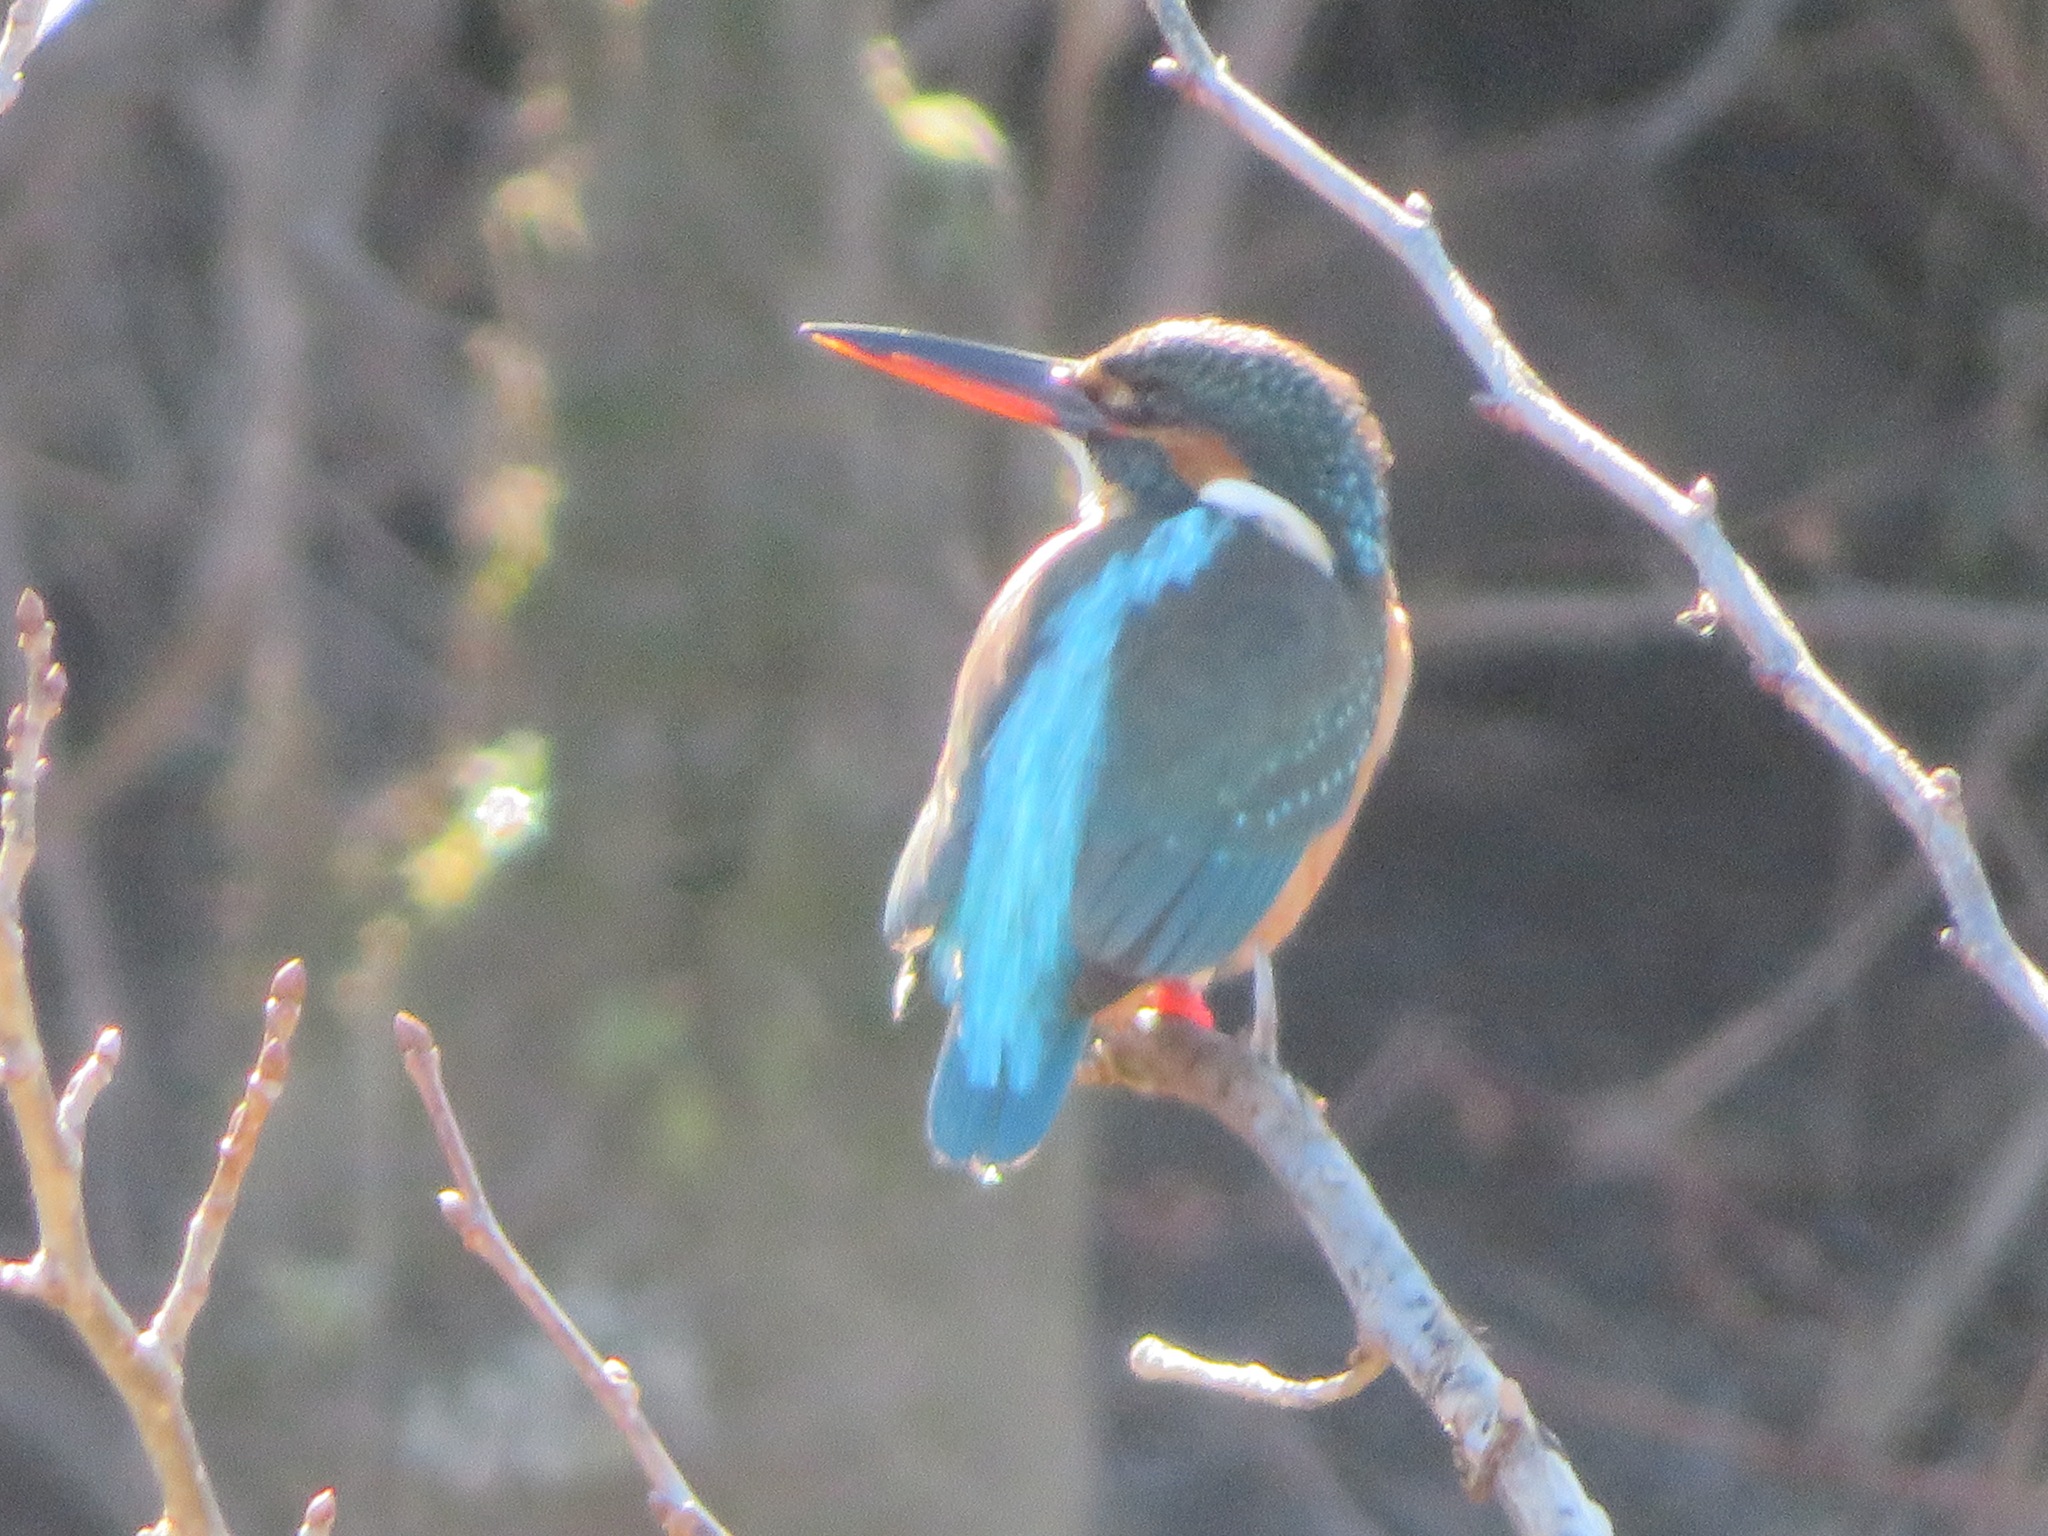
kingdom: Animalia
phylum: Chordata
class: Aves
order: Coraciiformes
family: Alcedinidae
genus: Alcedo
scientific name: Alcedo atthis
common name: Common kingfisher
